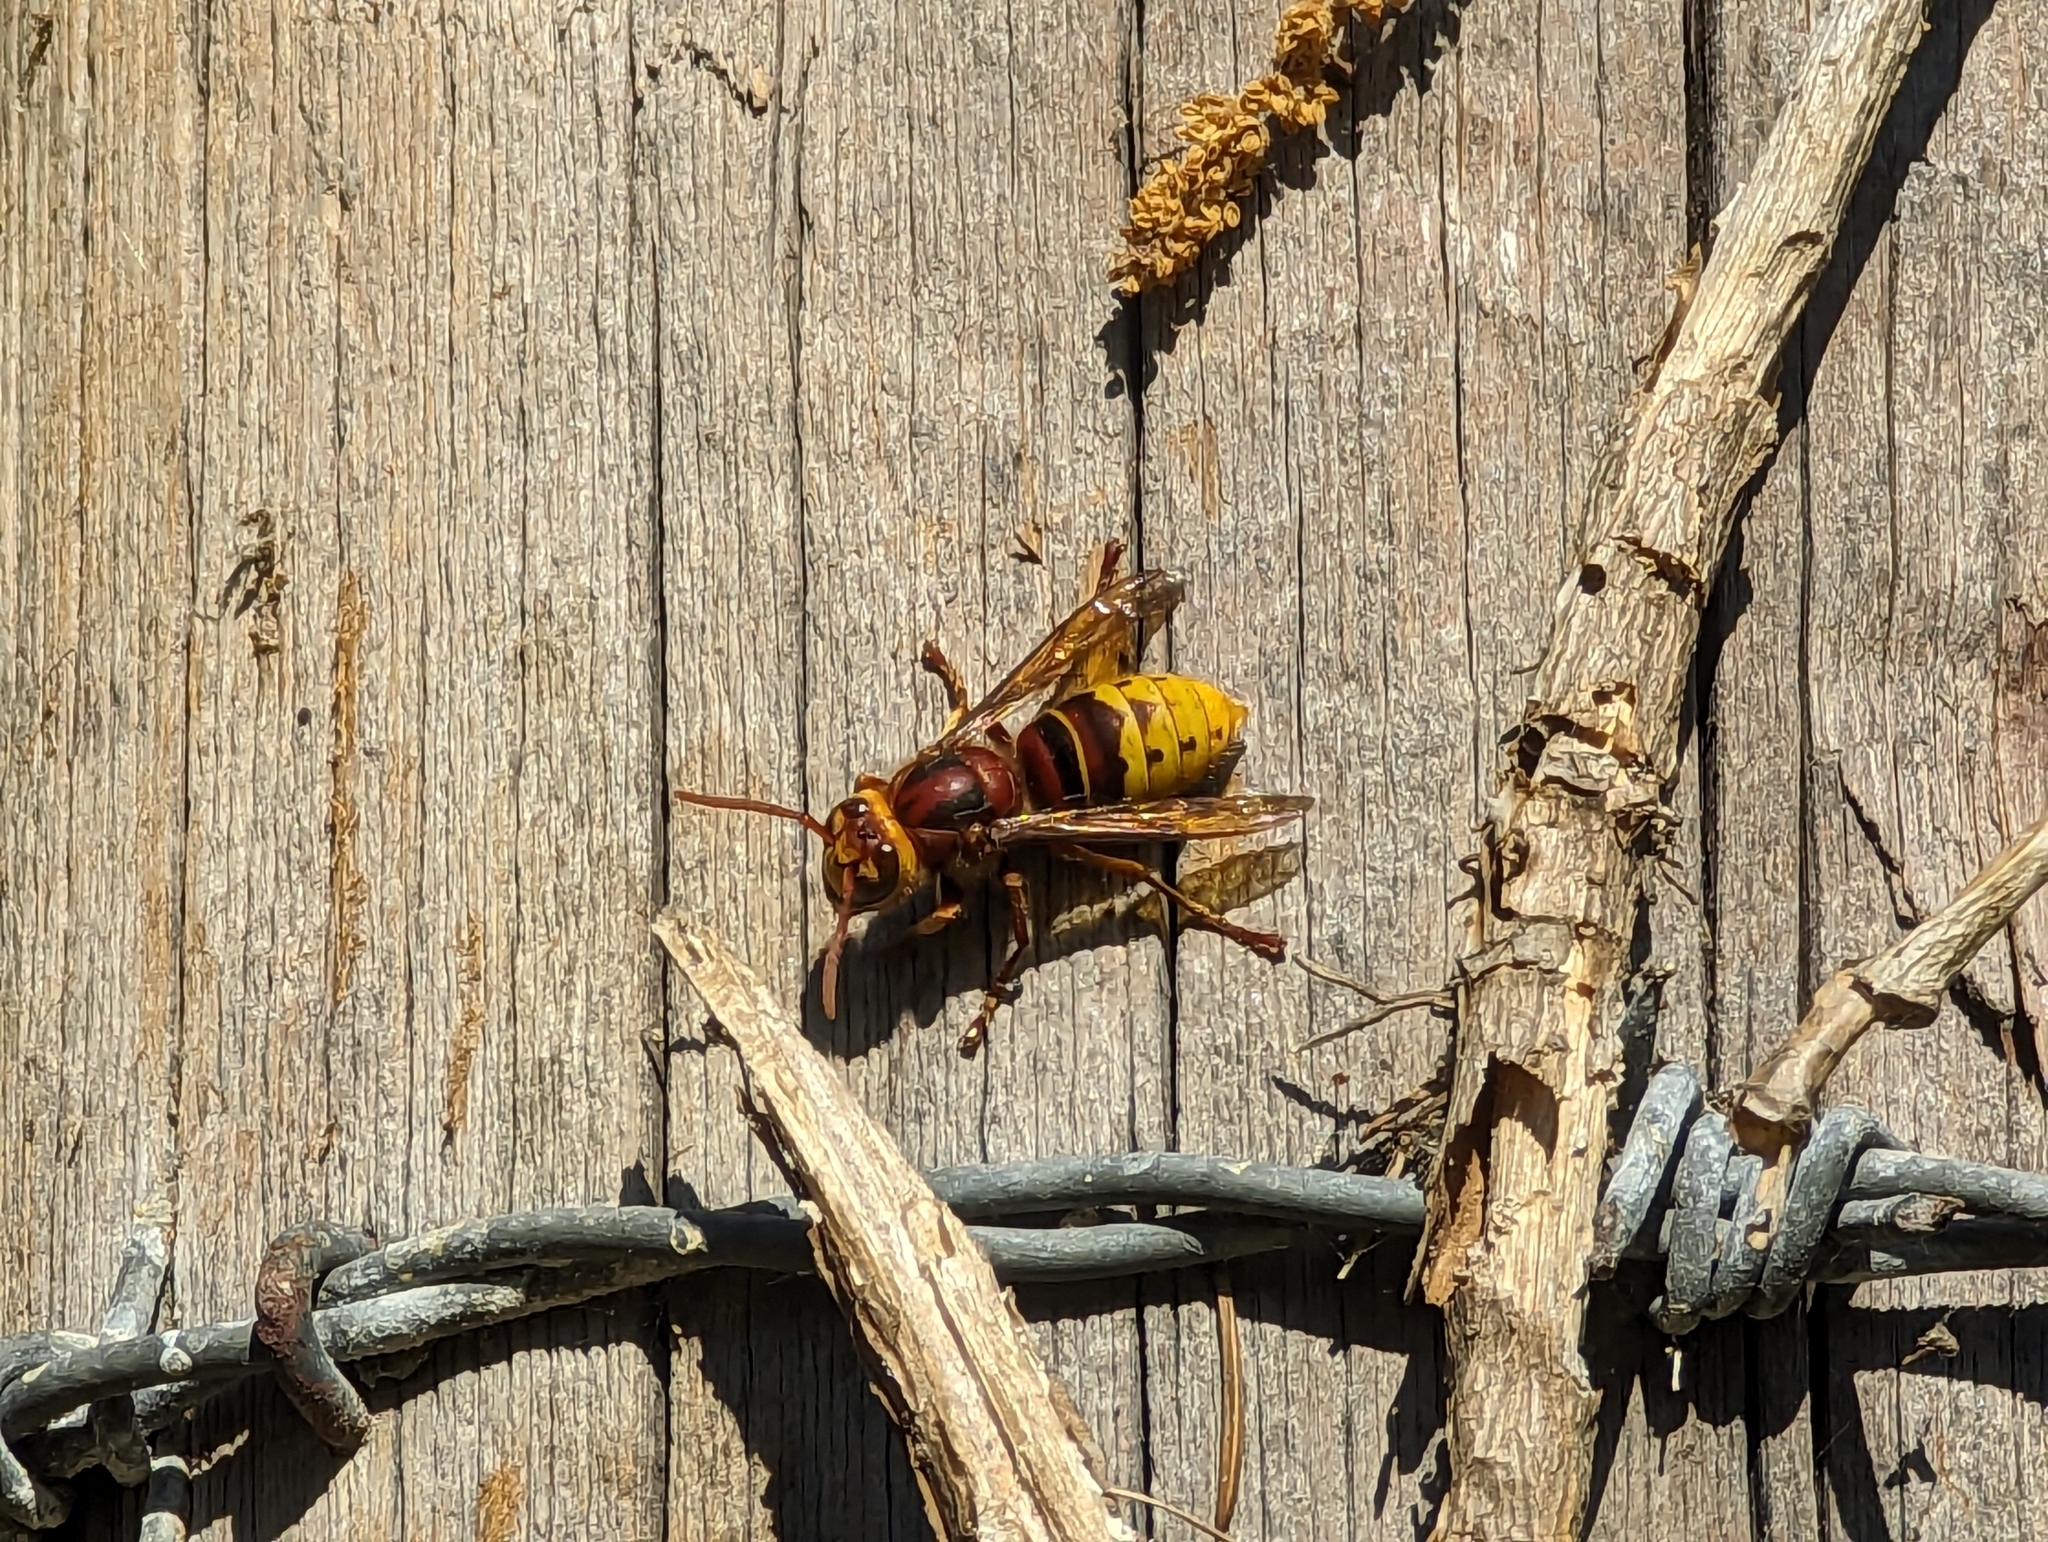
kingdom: Animalia
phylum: Arthropoda
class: Insecta
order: Hymenoptera
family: Vespidae
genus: Vespa
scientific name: Vespa crabro
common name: Hornet
